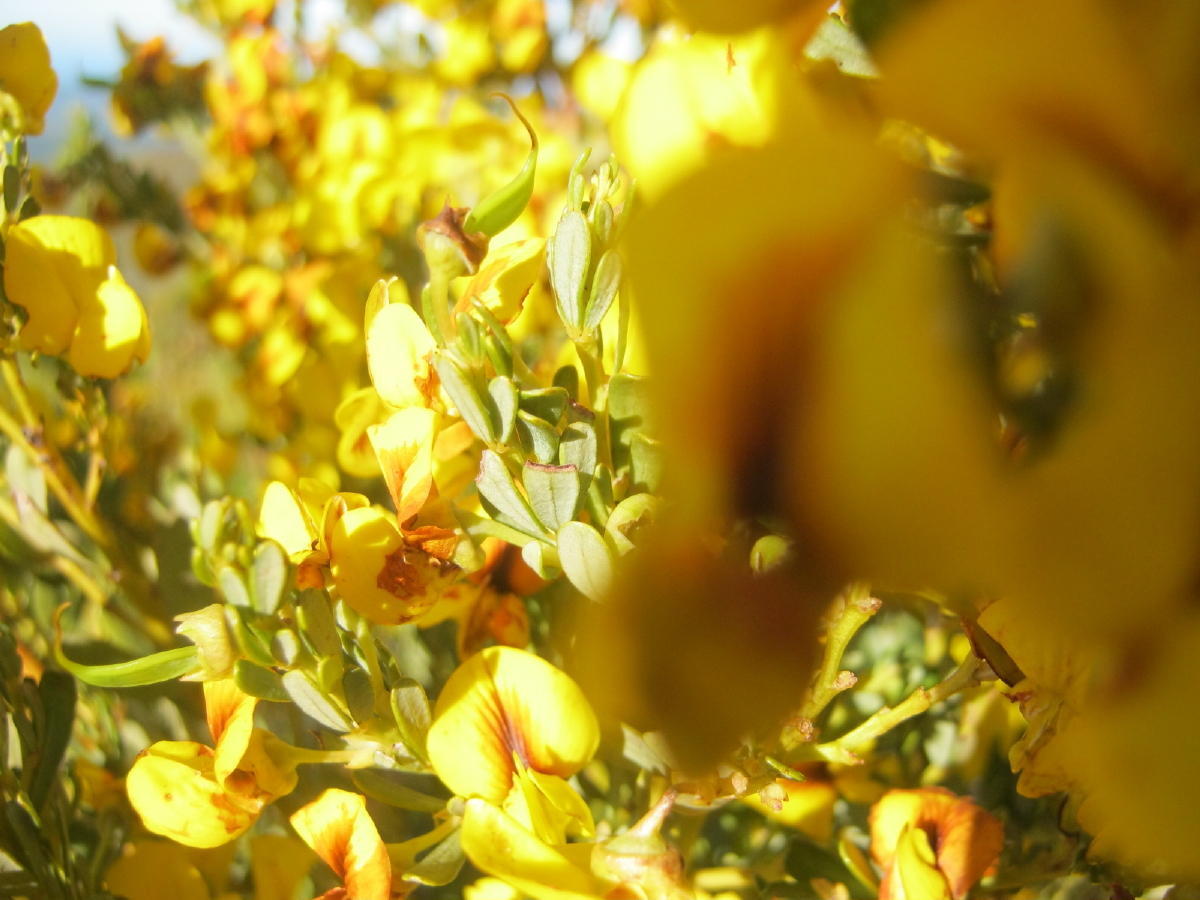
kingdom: Plantae
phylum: Tracheophyta
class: Magnoliopsida
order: Fabales
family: Fabaceae
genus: Cyclopia
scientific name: Cyclopia subternata
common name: Honeybush tea
